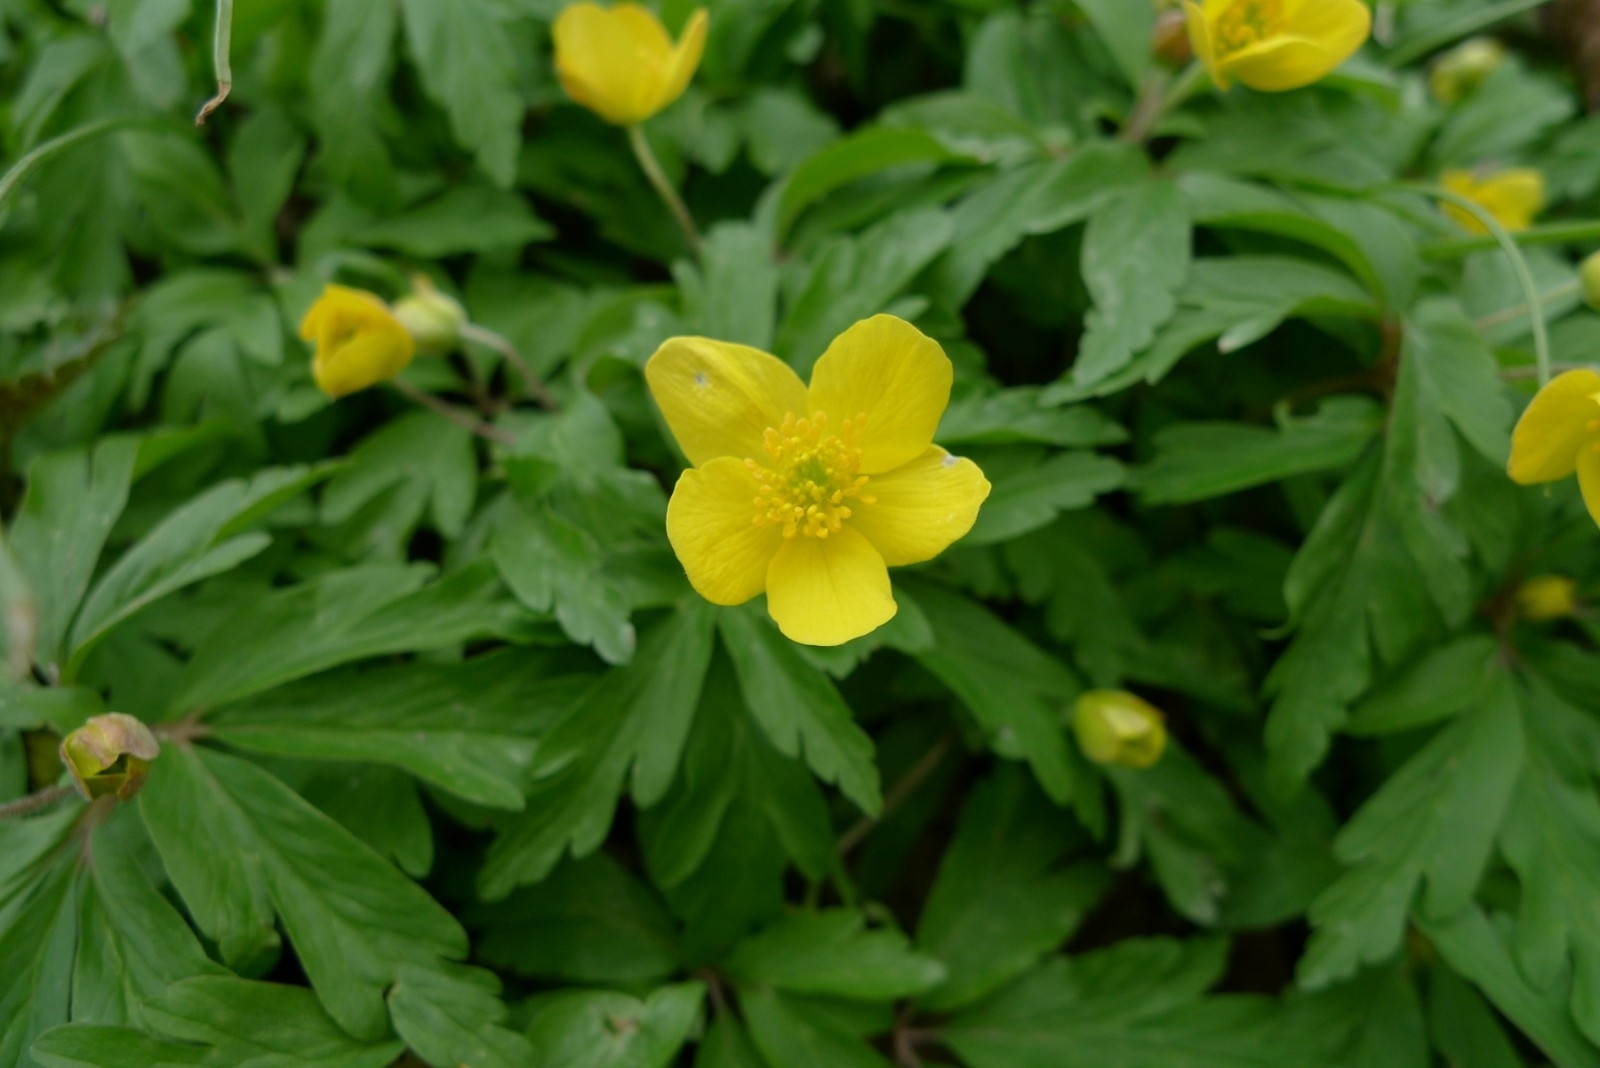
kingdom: Plantae
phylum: Tracheophyta
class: Magnoliopsida
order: Ranunculales
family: Ranunculaceae
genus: Anemone
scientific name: Anemone ranunculoides
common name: Yellow anemone
